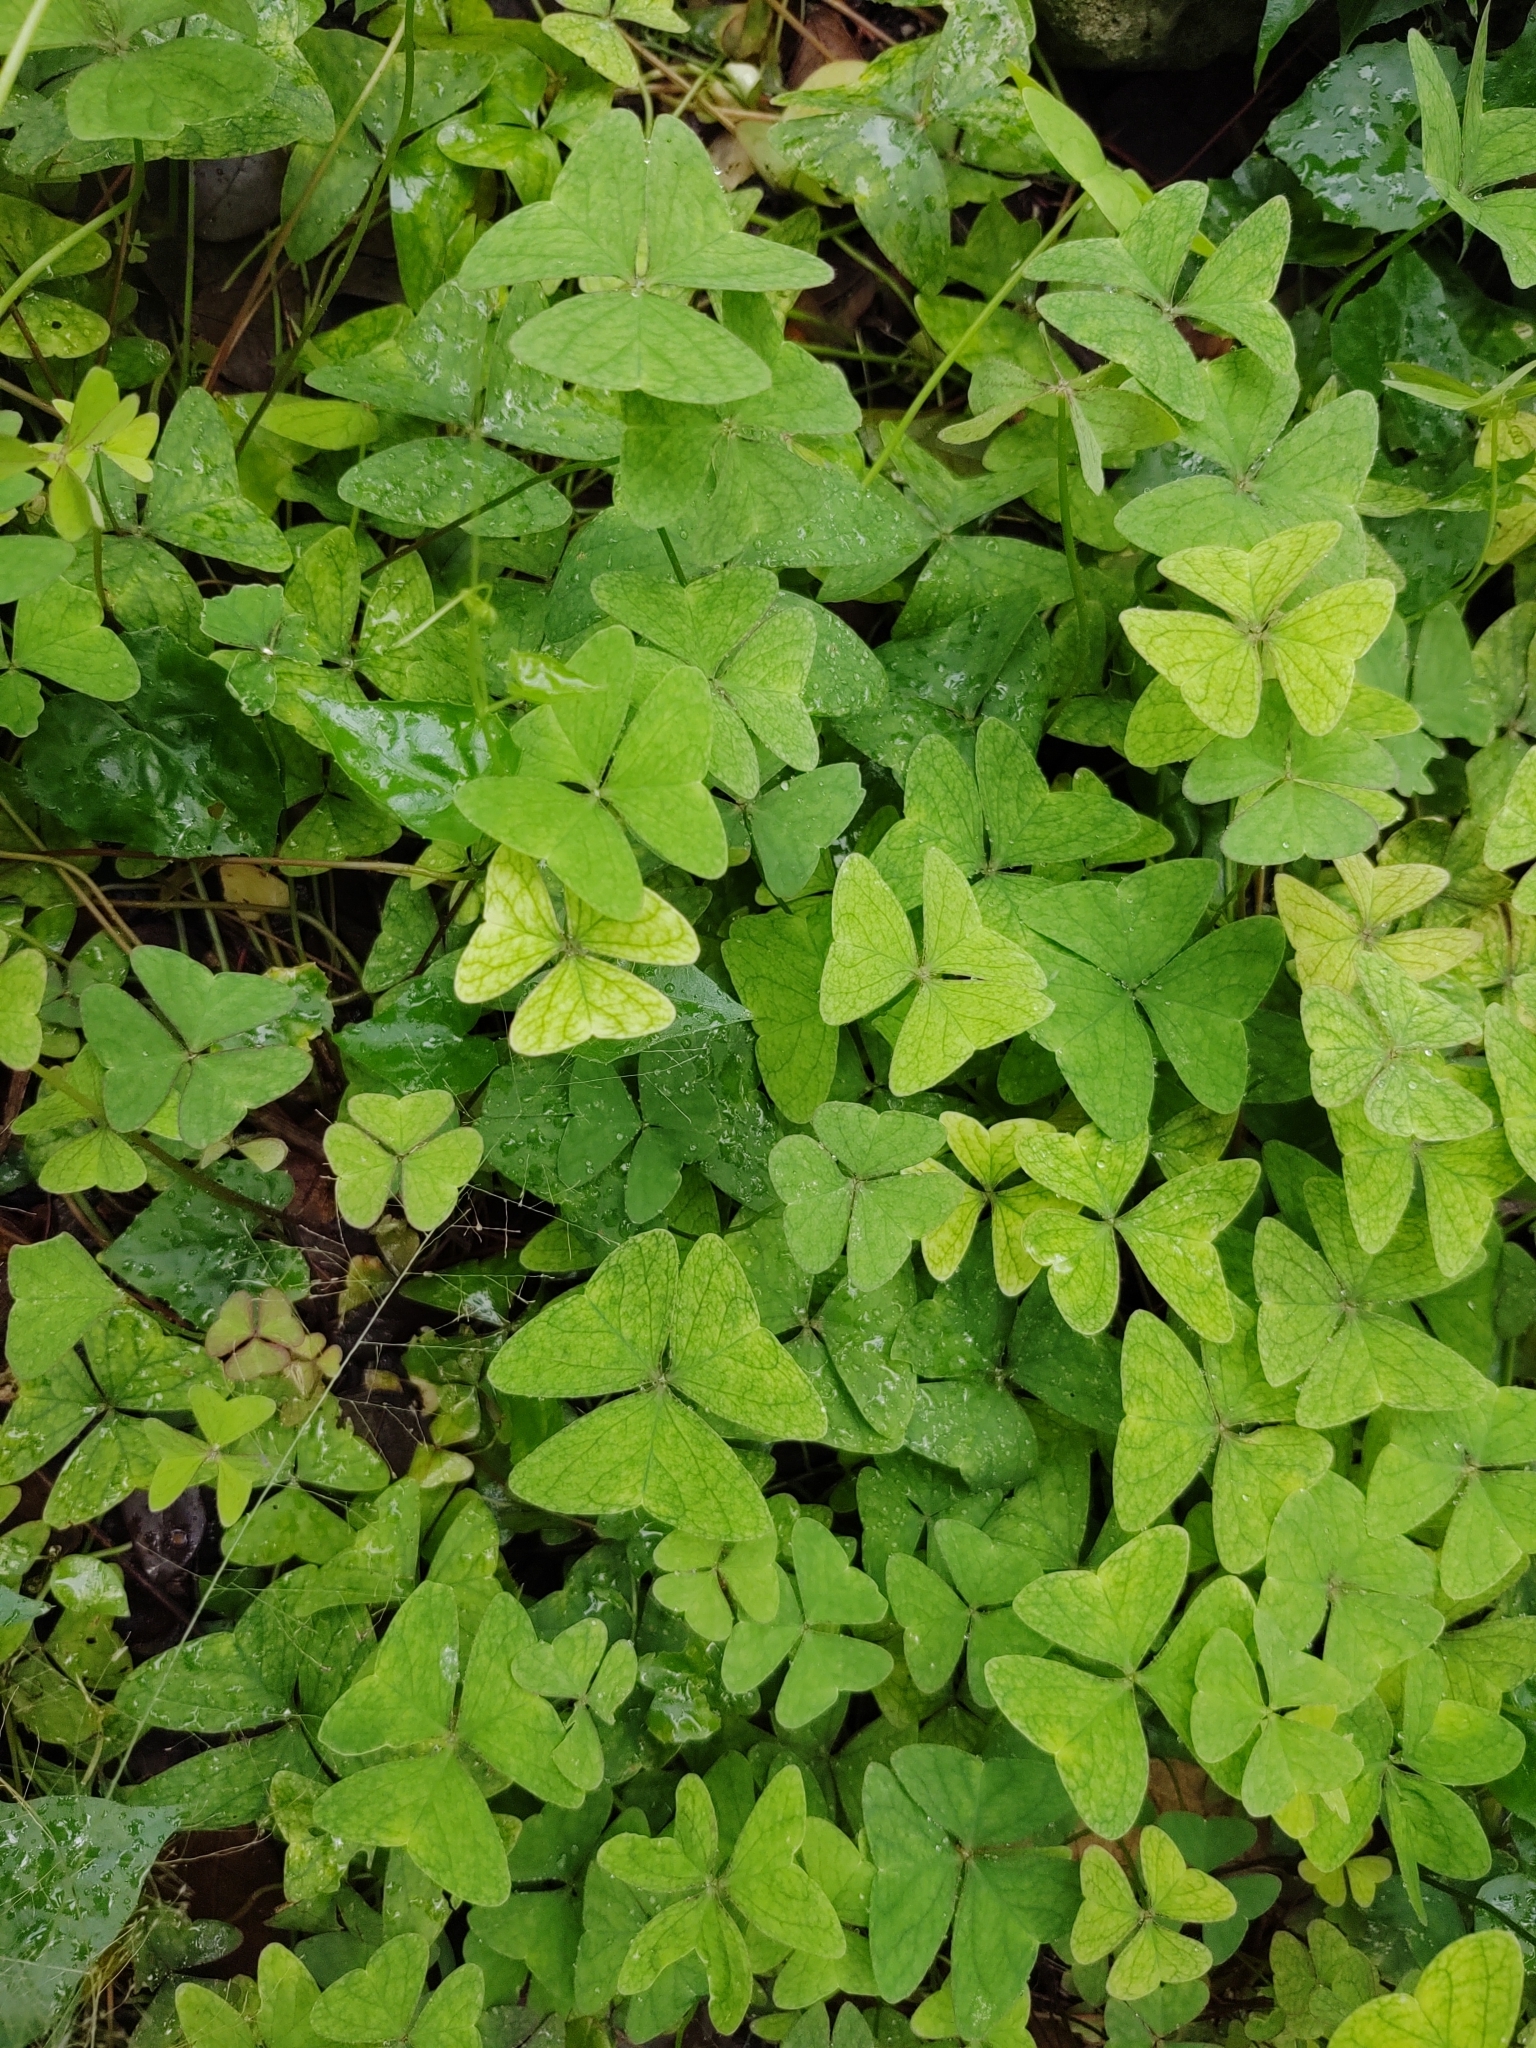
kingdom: Plantae
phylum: Tracheophyta
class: Magnoliopsida
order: Oxalidales
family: Oxalidaceae
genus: Oxalis
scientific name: Oxalis latifolia
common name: Garden pink-sorrel
